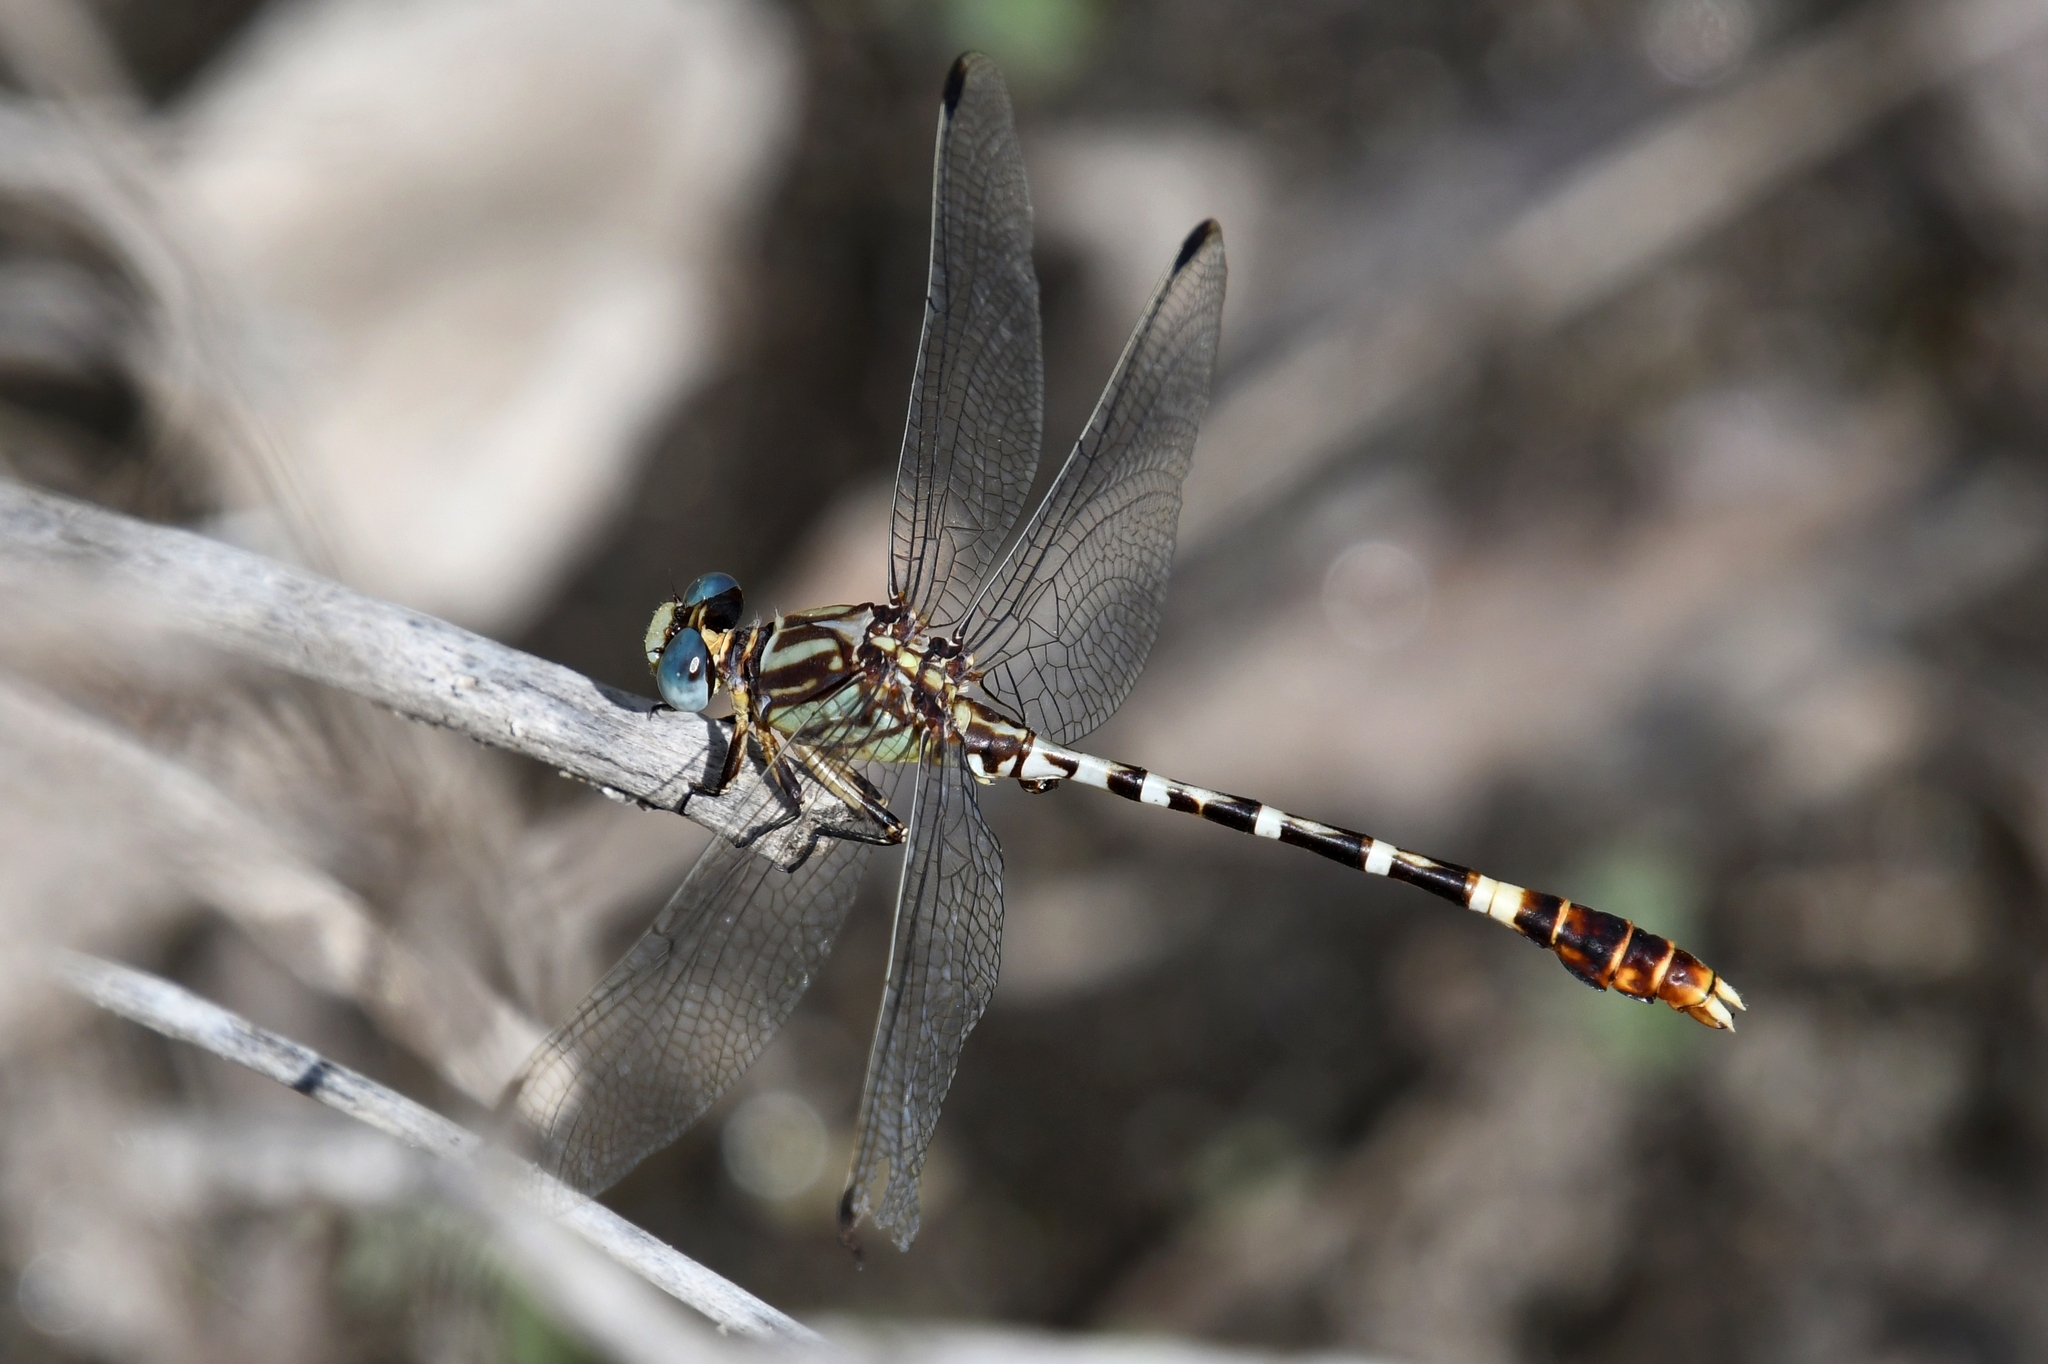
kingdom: Animalia
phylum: Arthropoda
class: Insecta
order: Odonata
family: Gomphidae
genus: Erpetogomphus
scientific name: Erpetogomphus lampropeltis
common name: Serpent ringtail
